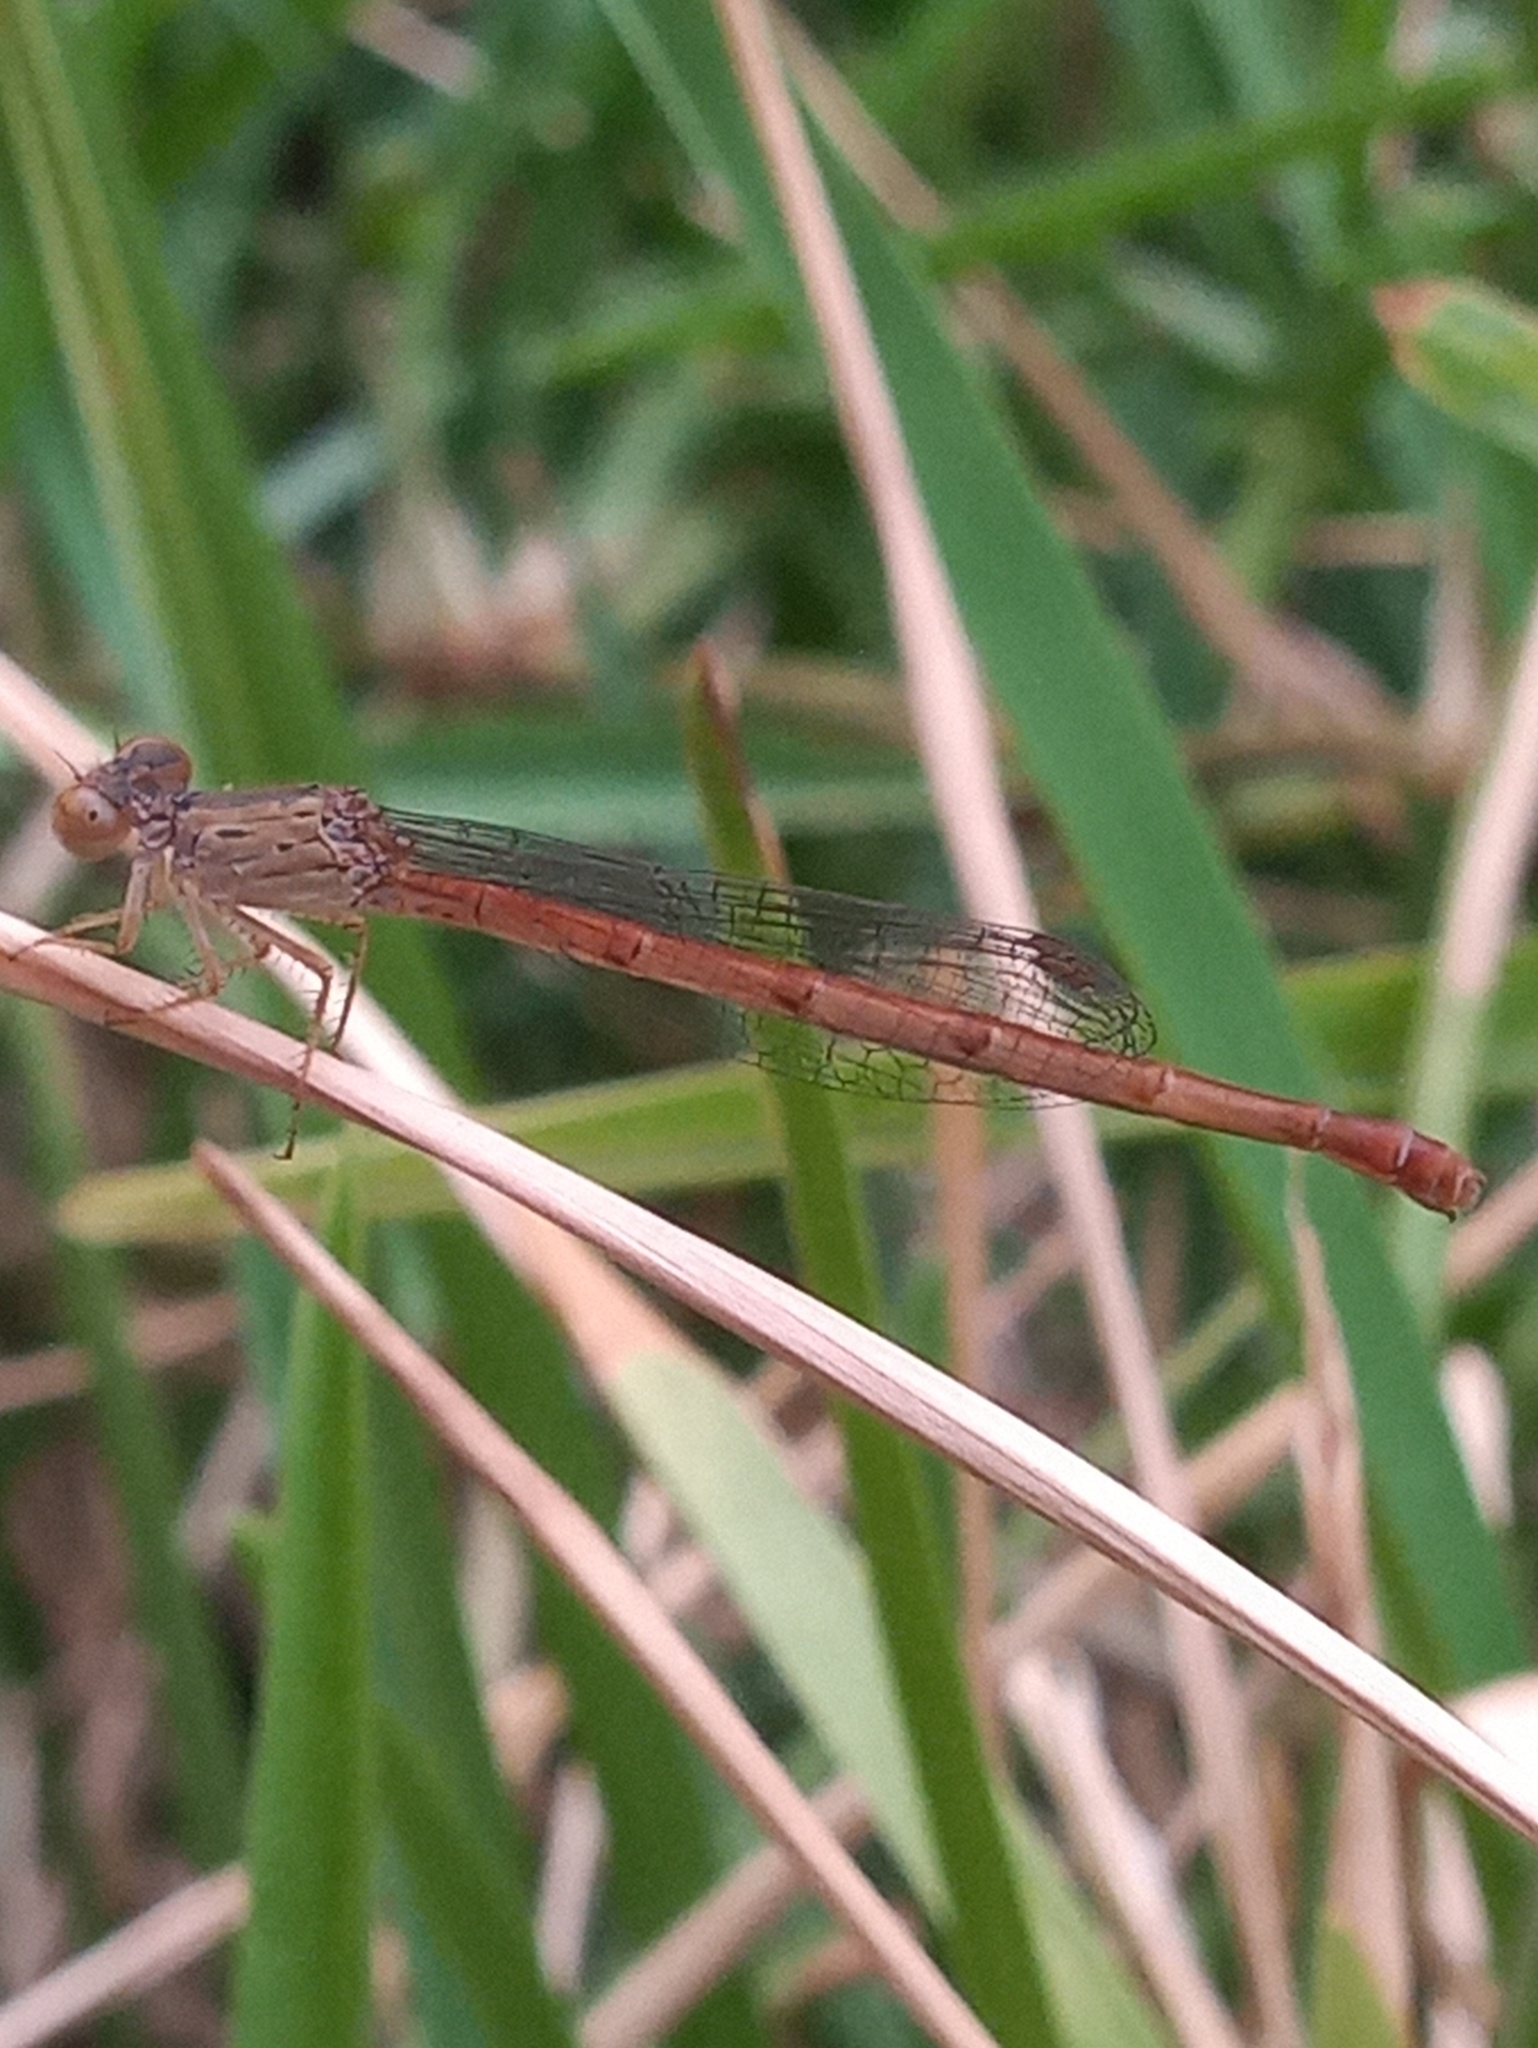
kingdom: Animalia
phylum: Arthropoda
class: Insecta
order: Odonata
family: Coenagrionidae
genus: Telebasis
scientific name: Telebasis salva
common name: Desert firetail
